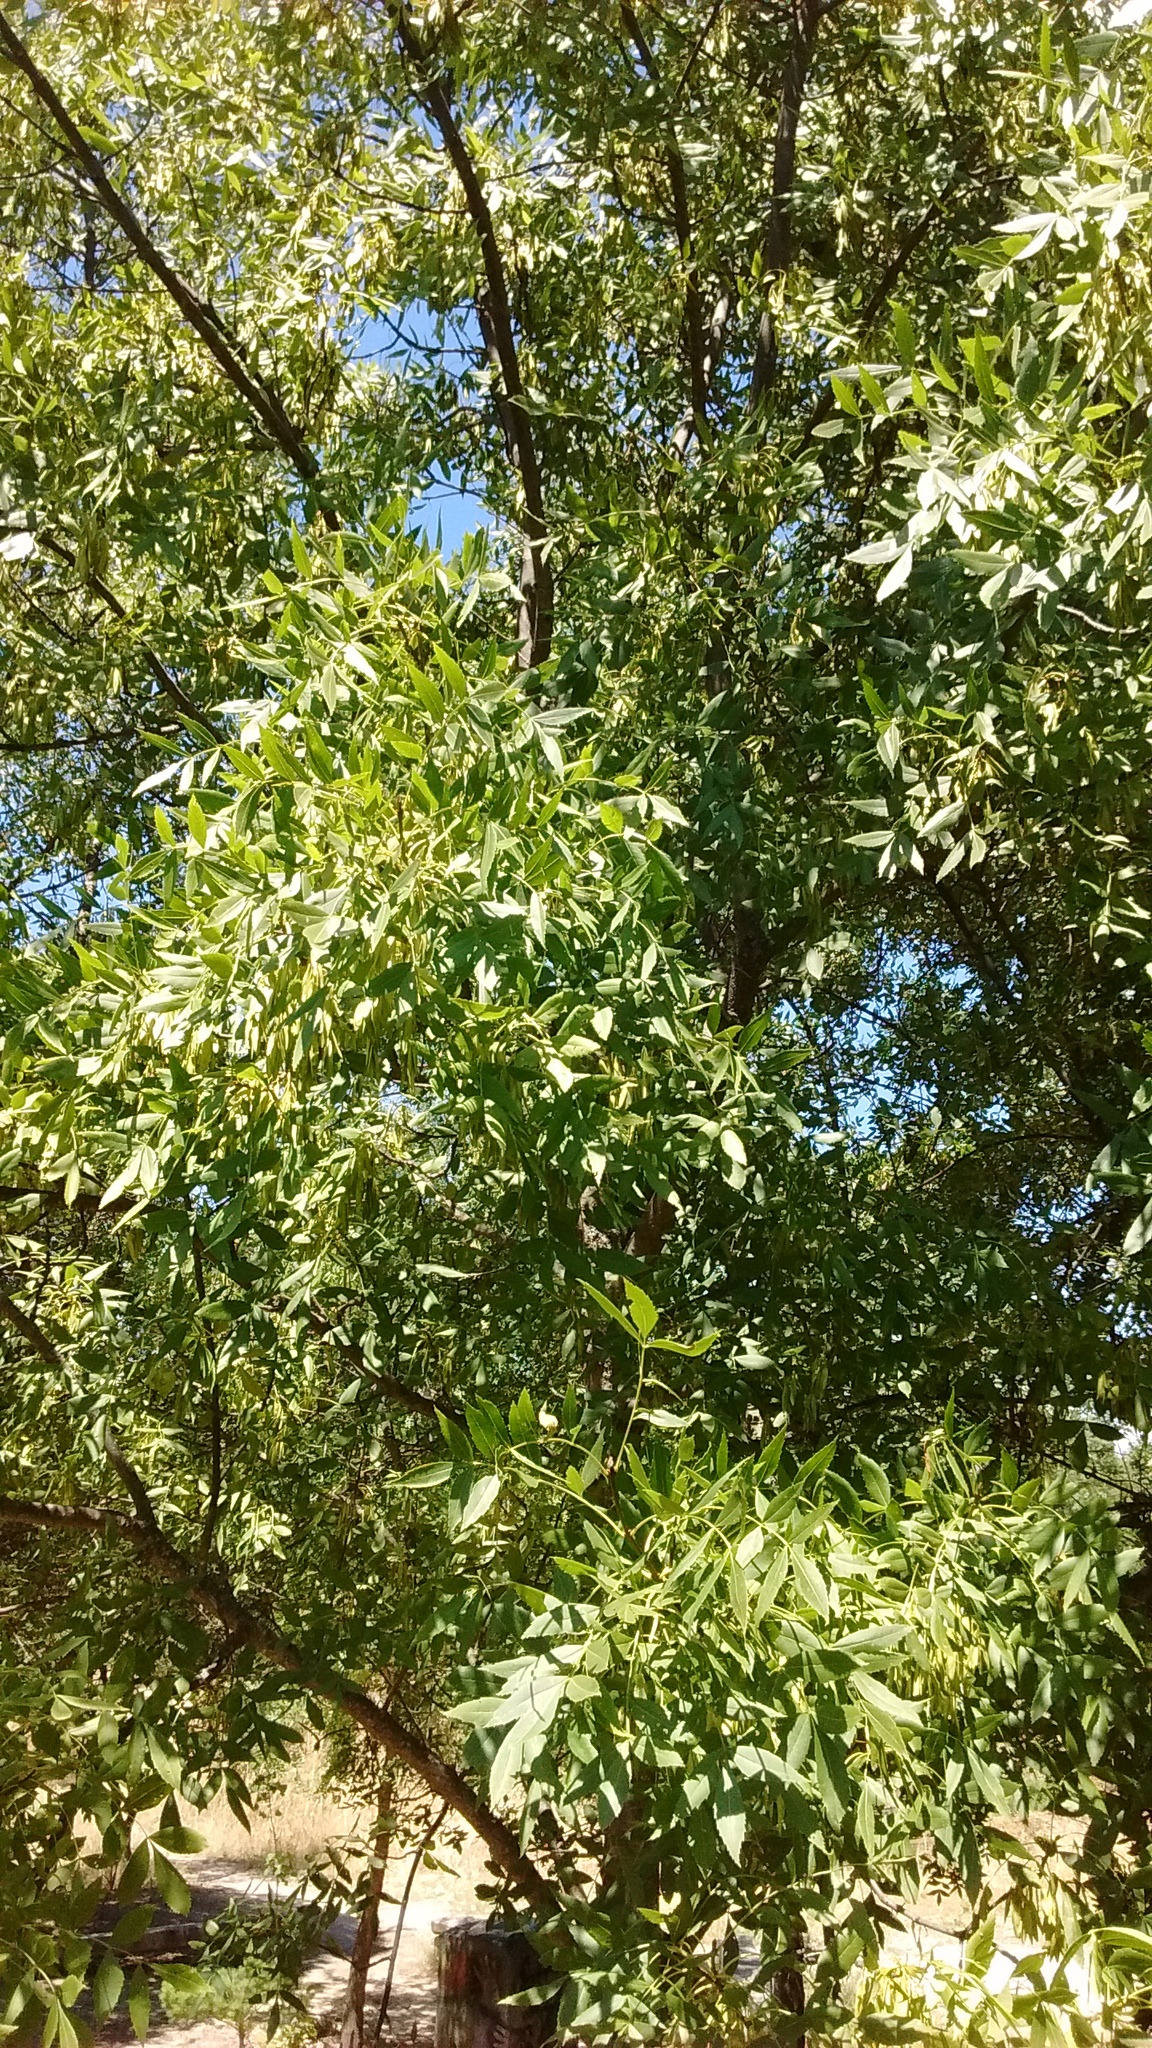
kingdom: Plantae
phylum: Tracheophyta
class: Magnoliopsida
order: Lamiales
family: Oleaceae
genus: Fraxinus
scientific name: Fraxinus angustifolia
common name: Narrow-leafed ash
